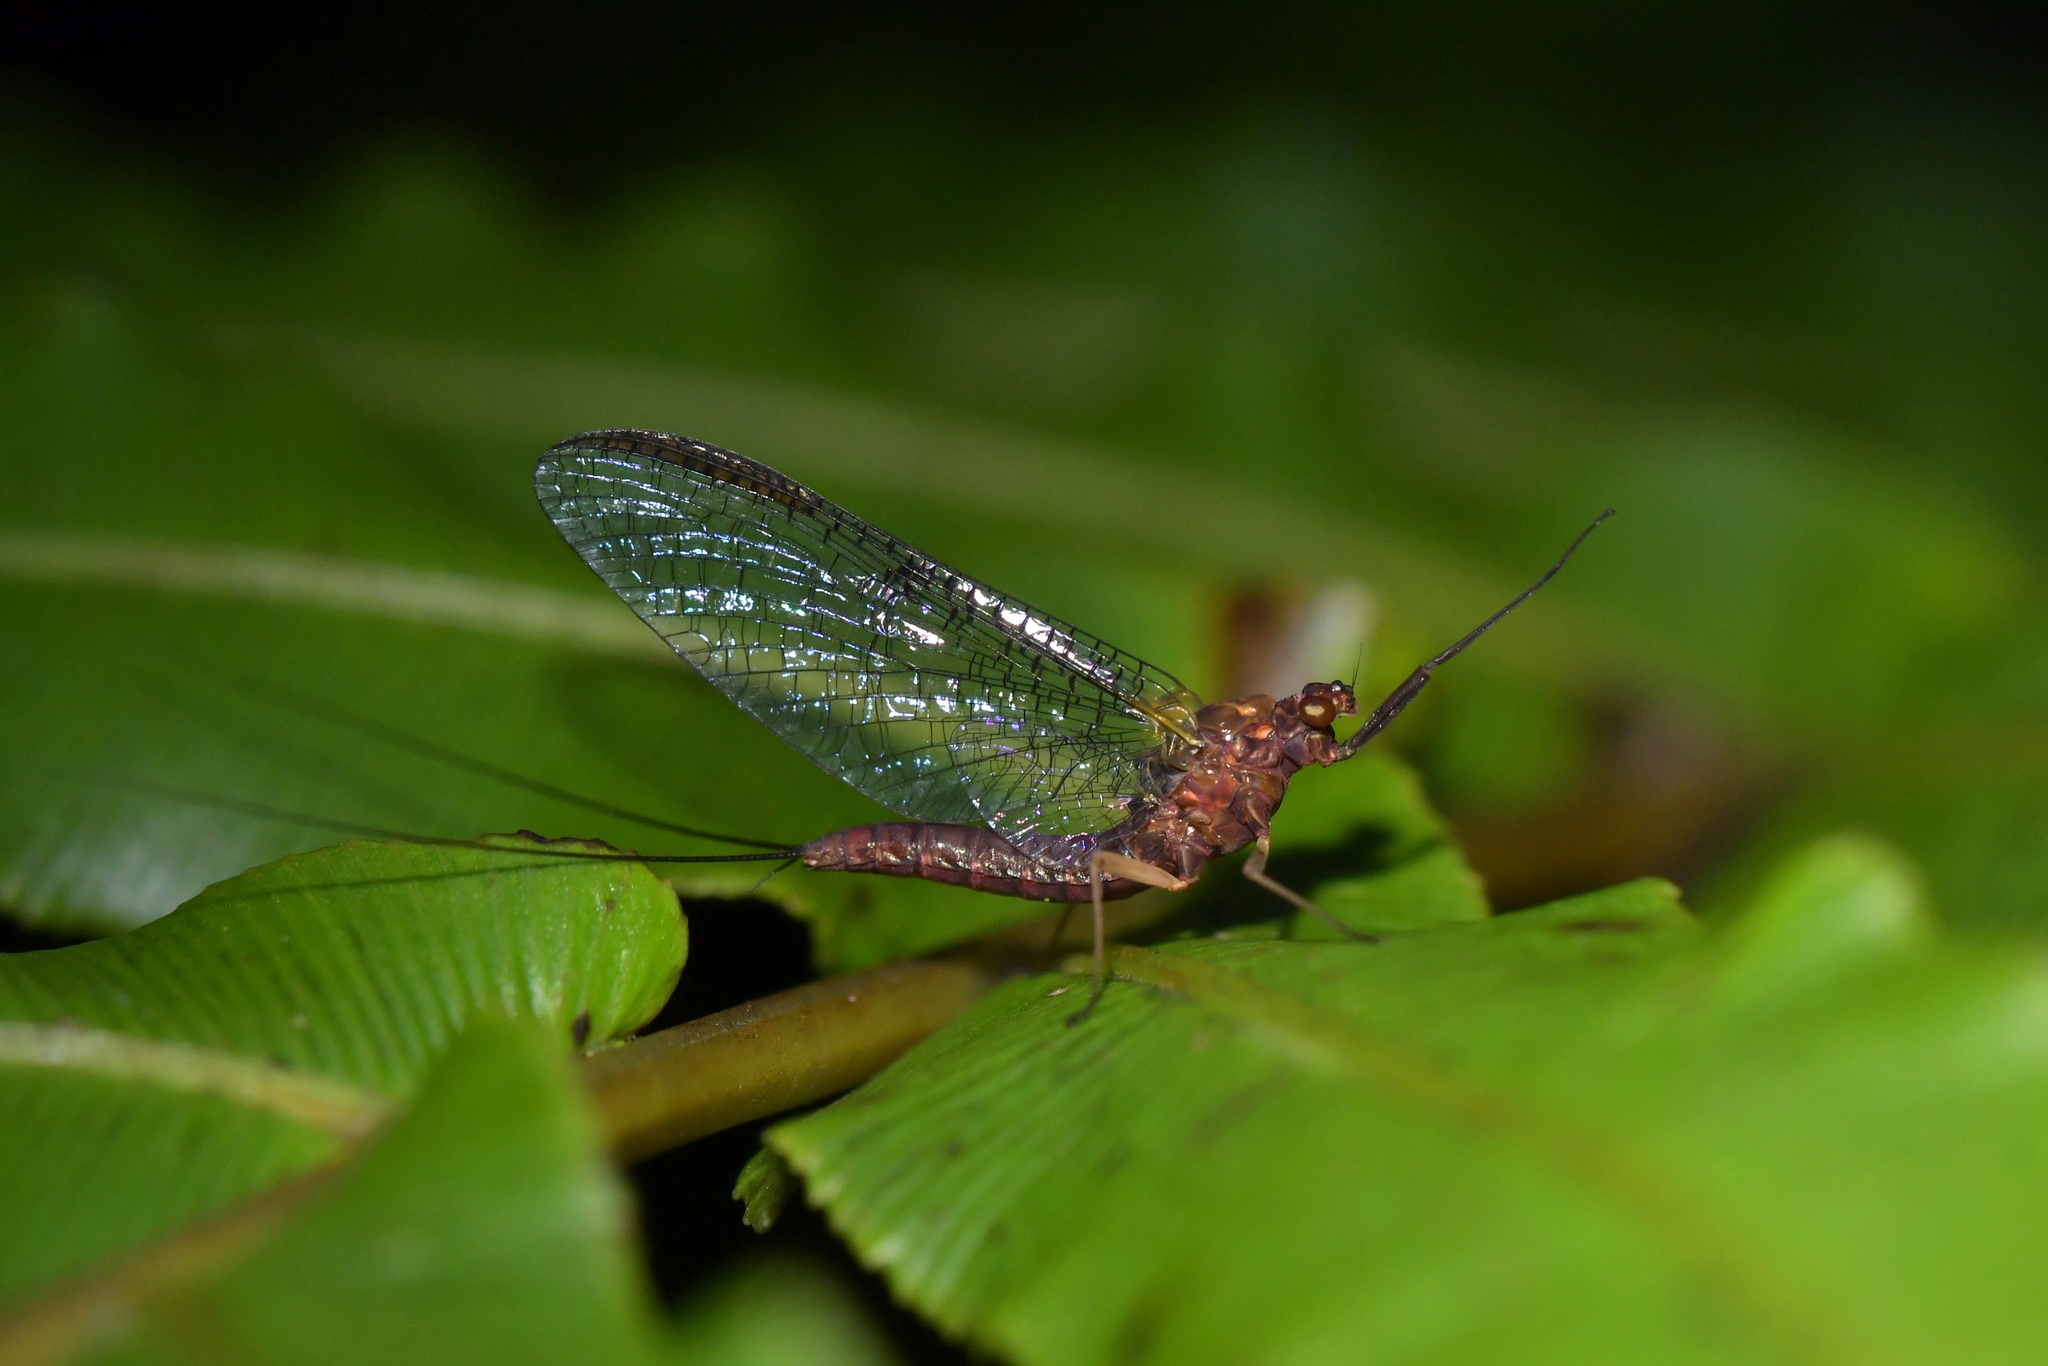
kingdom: Animalia
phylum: Arthropoda
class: Insecta
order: Ephemeroptera
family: Coloburiscidae
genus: Coloburiscus
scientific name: Coloburiscus humeralis
